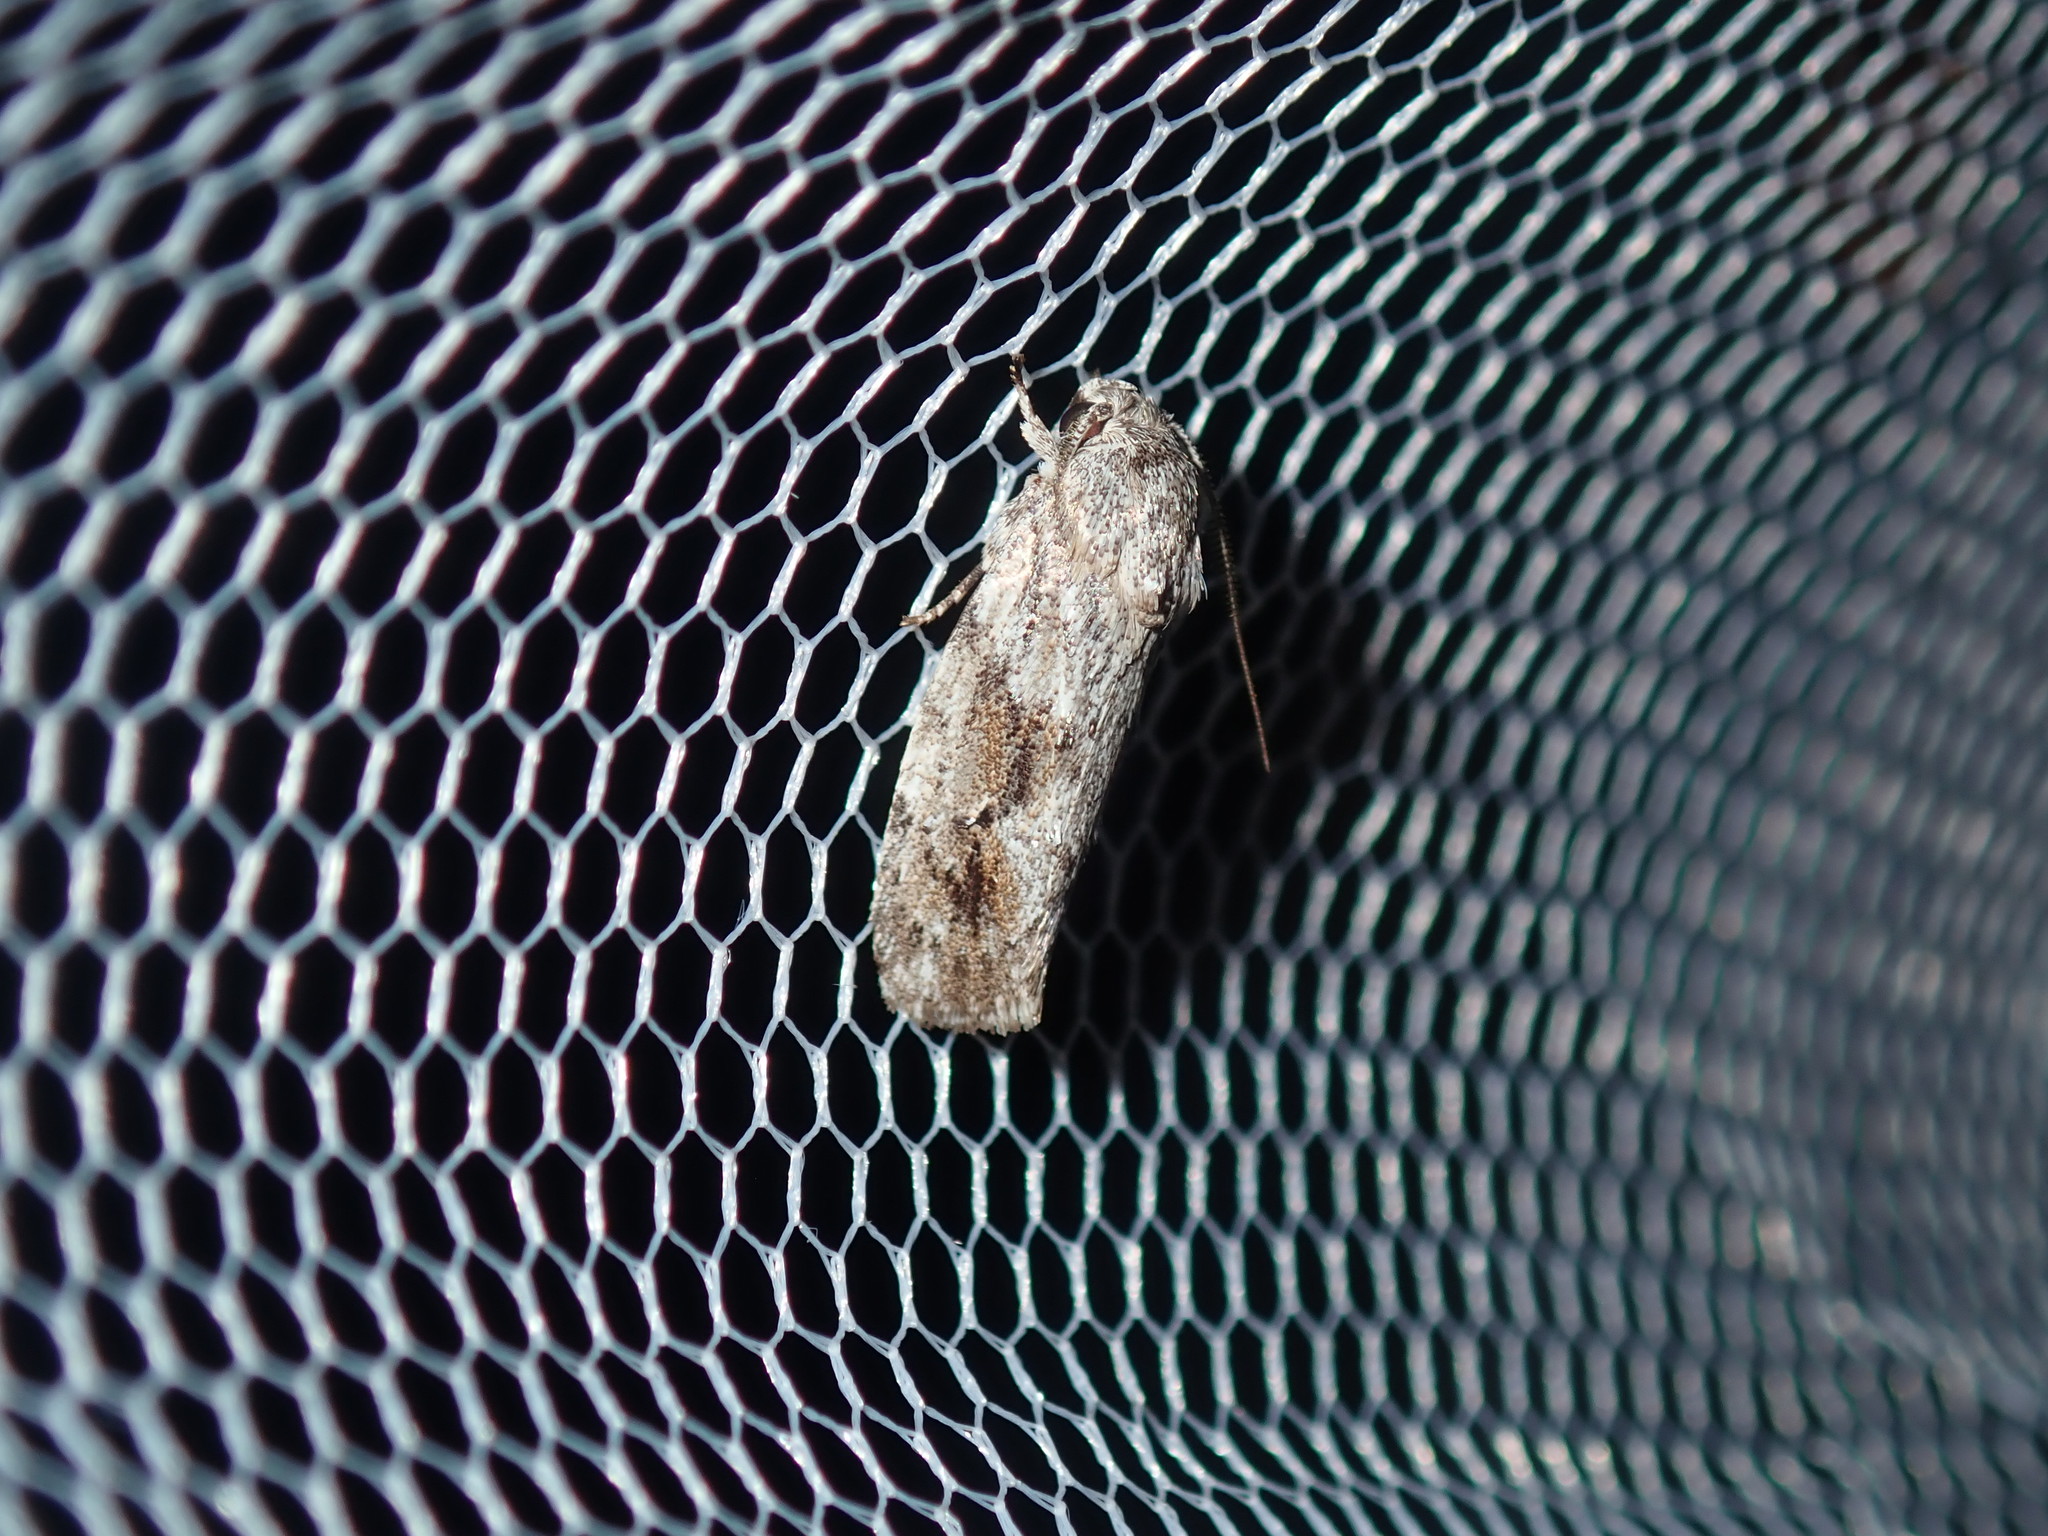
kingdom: Animalia
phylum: Arthropoda
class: Insecta
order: Lepidoptera
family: Depressariidae
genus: Agriophara
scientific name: Agriophara confertella
